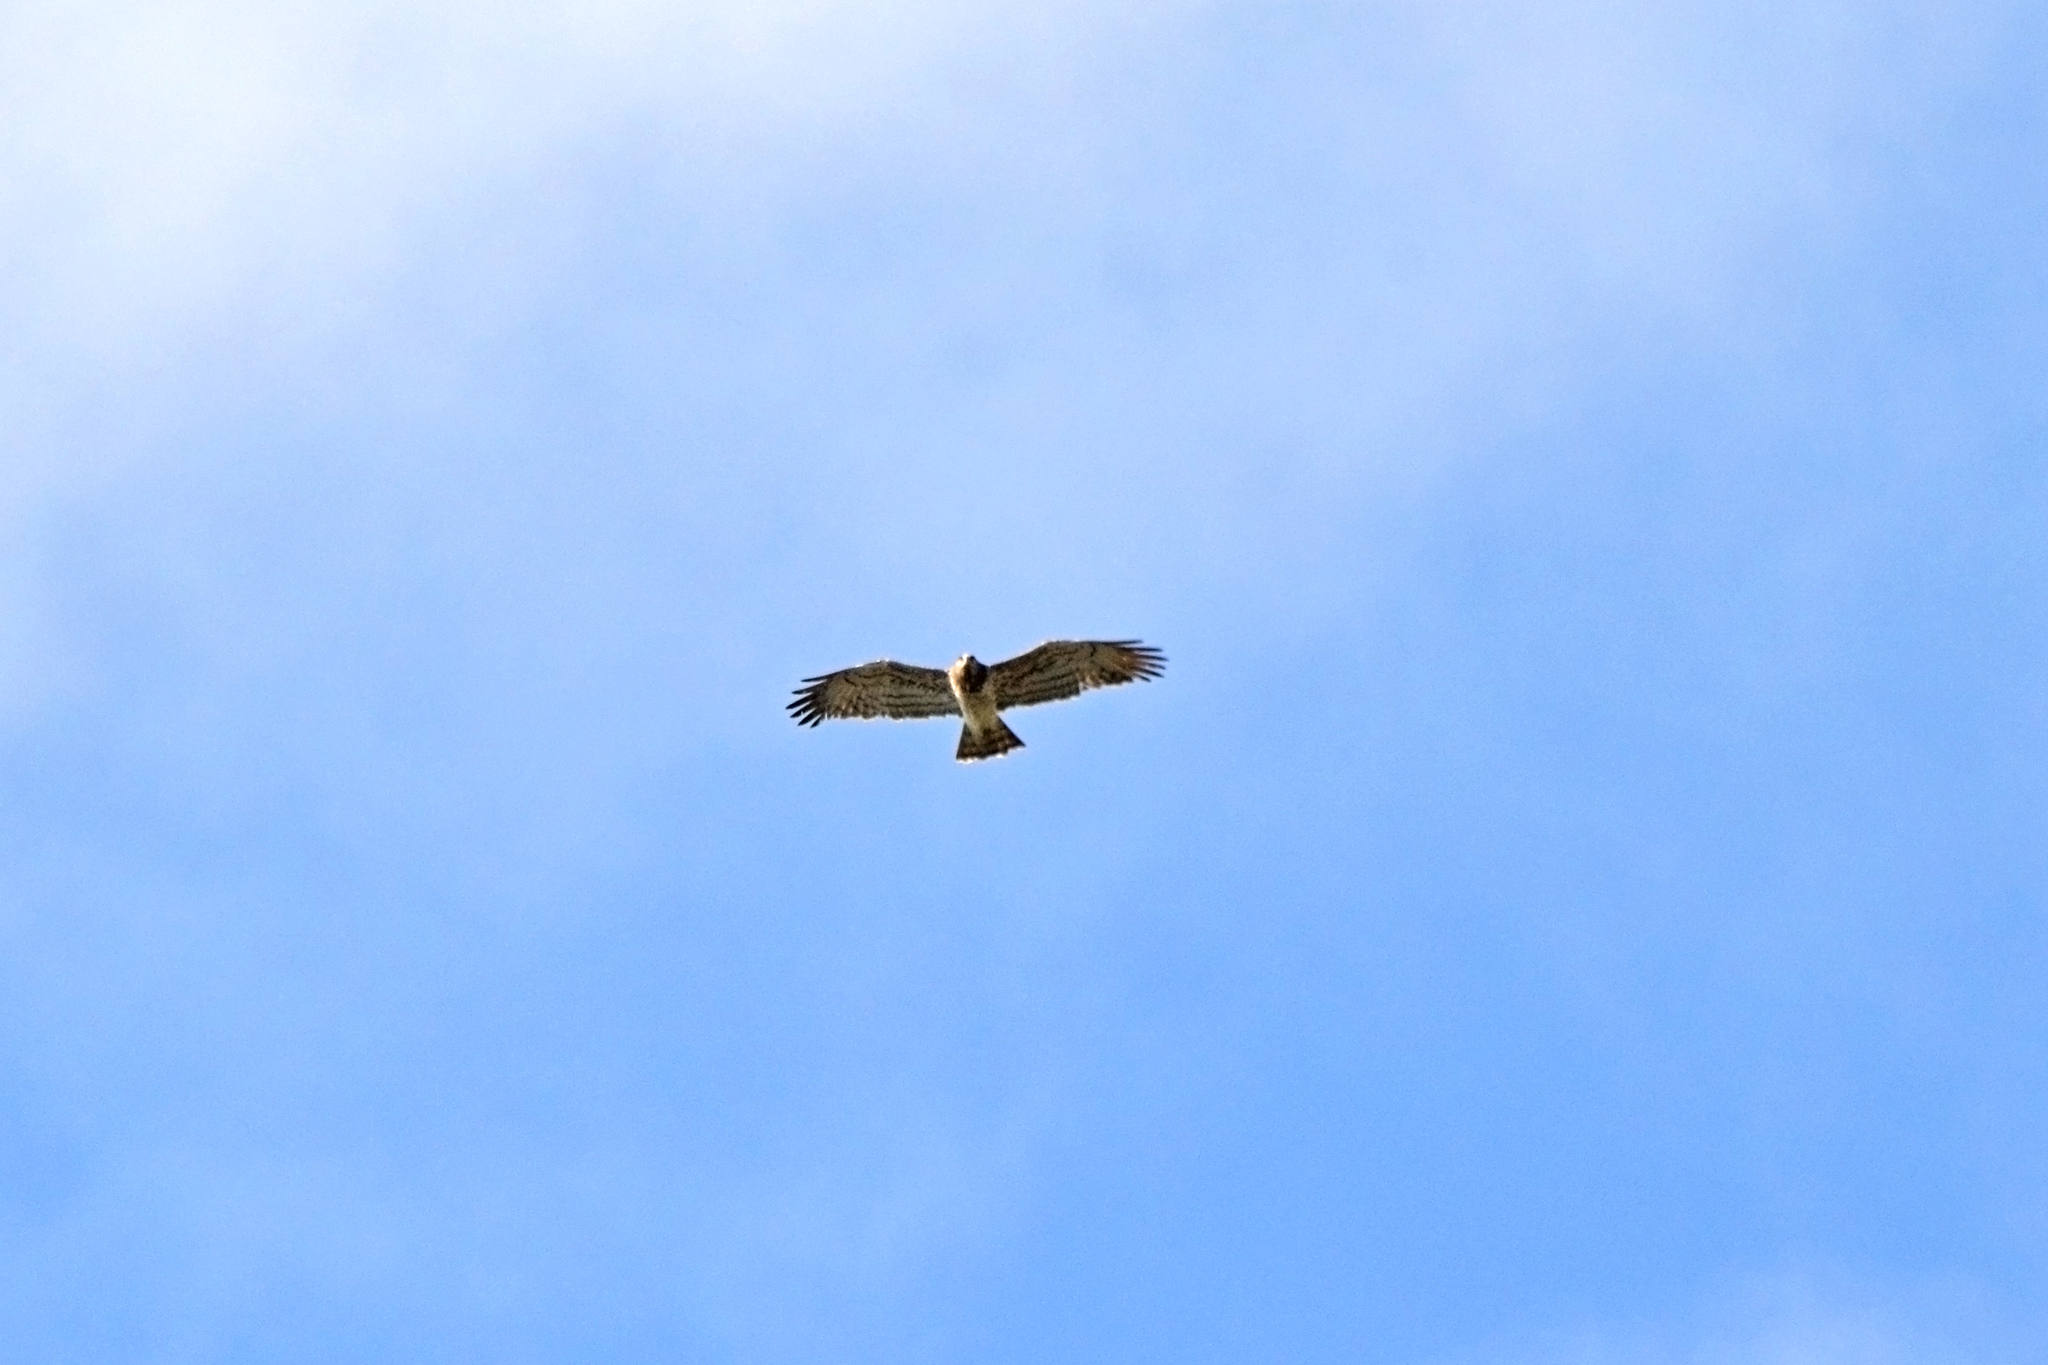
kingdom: Animalia
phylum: Chordata
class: Aves
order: Accipitriformes
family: Accipitridae
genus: Circaetus
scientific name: Circaetus gallicus
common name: Short-toed snake eagle
